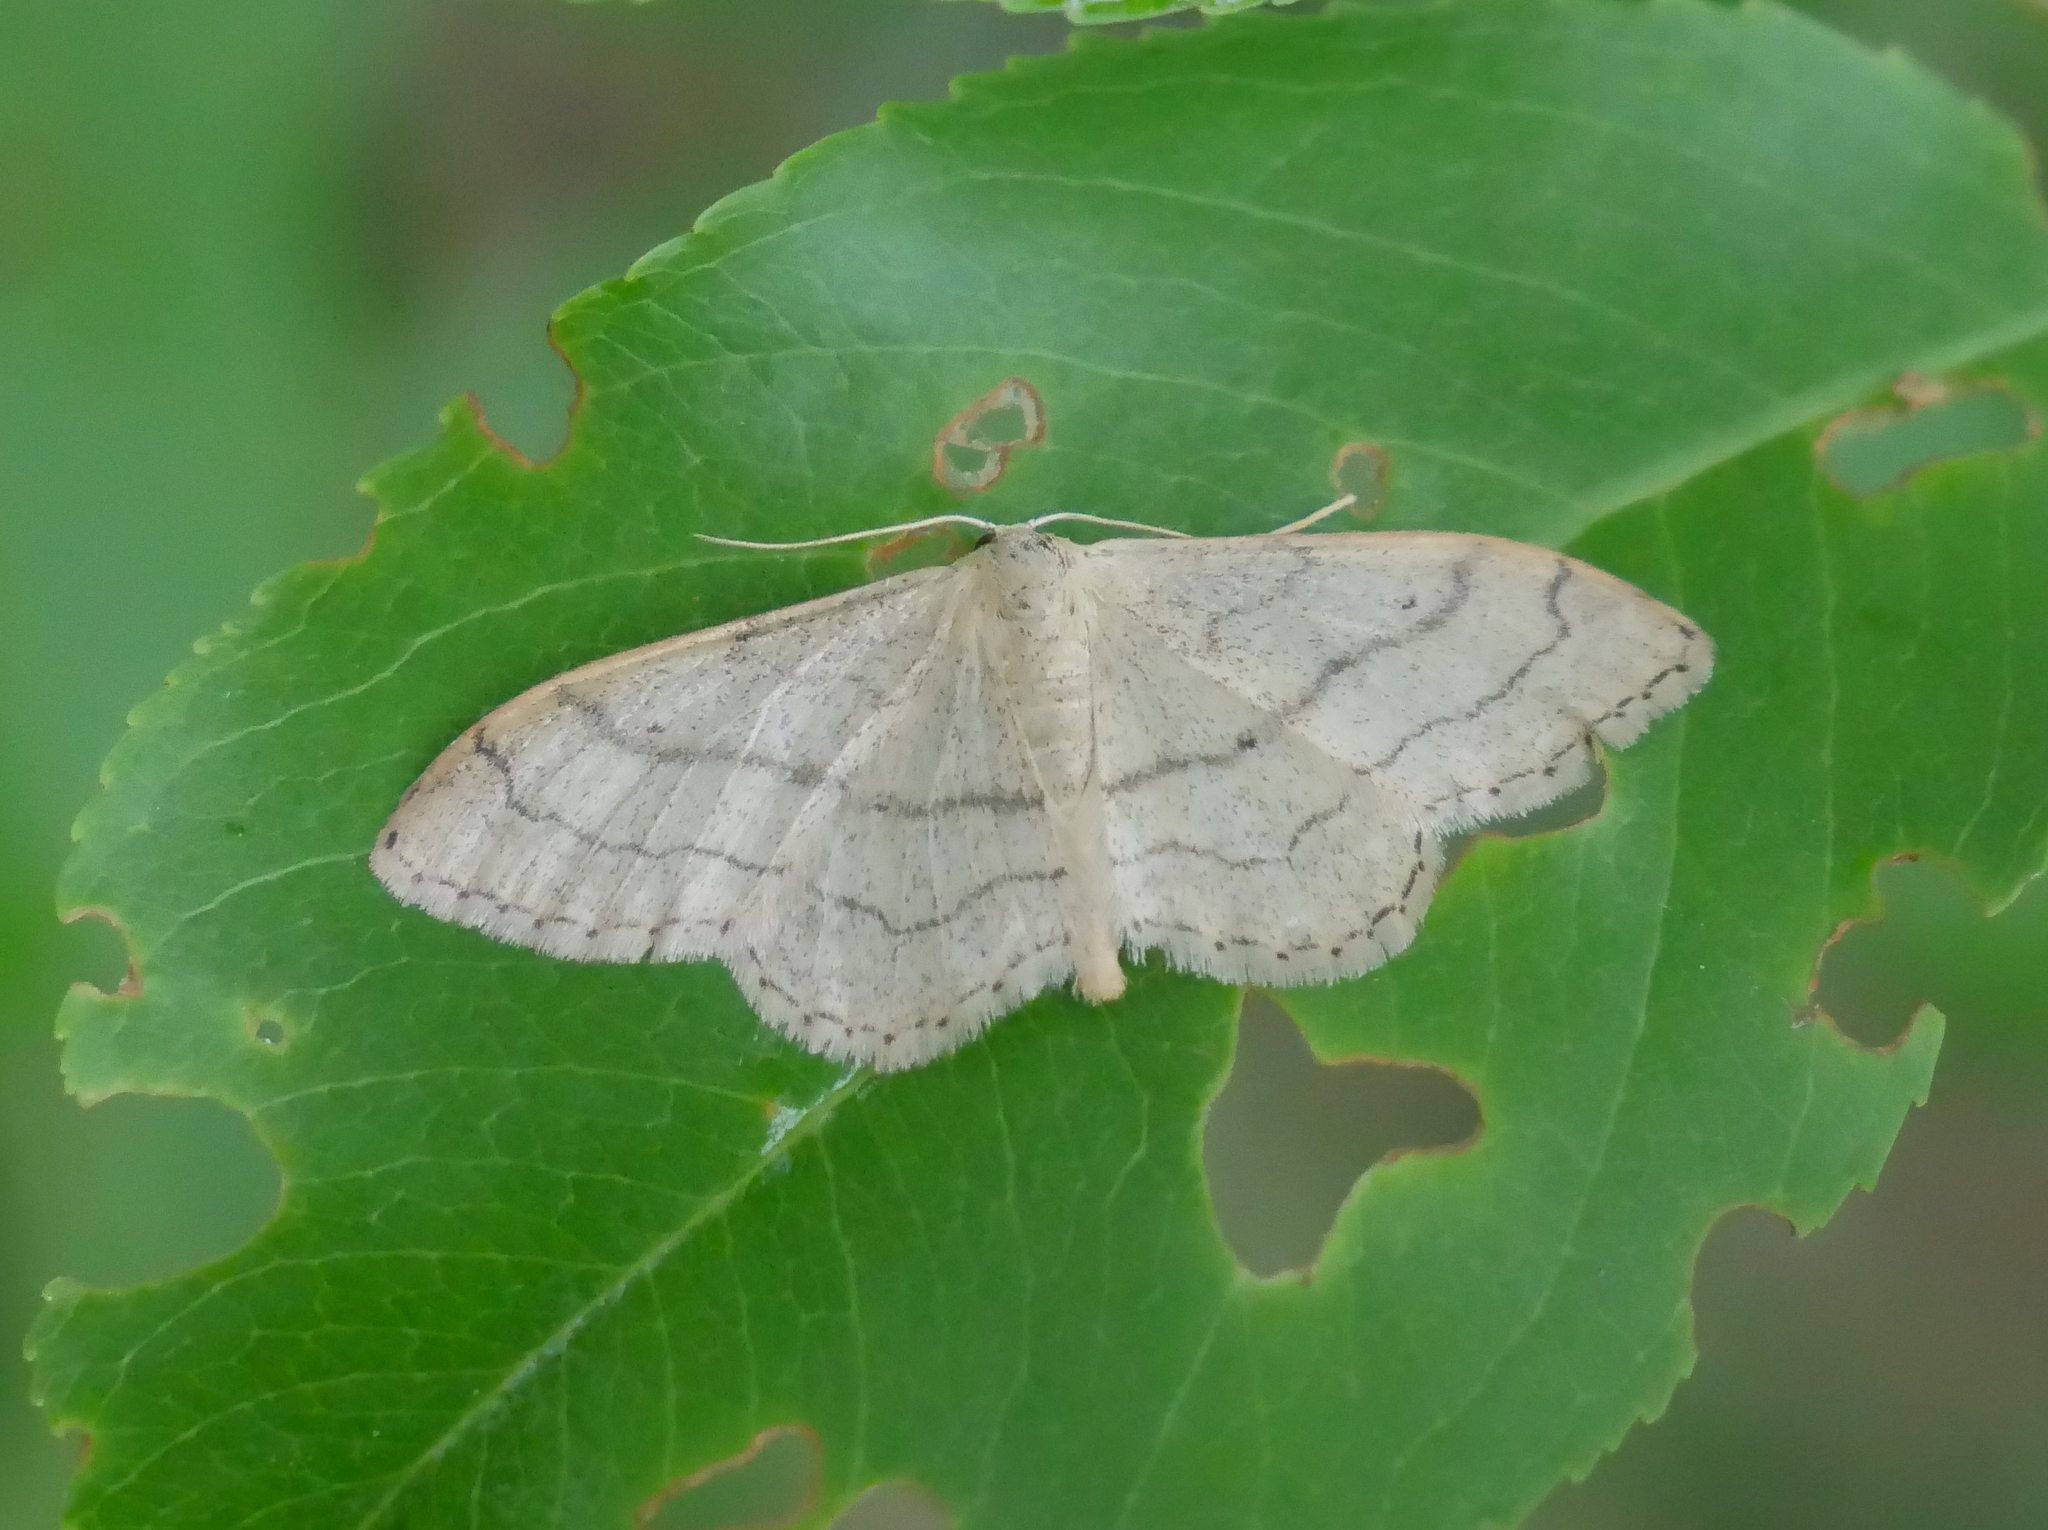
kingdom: Animalia
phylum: Arthropoda
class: Insecta
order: Lepidoptera
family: Geometridae
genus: Idaea
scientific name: Idaea aversata
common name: Riband wave
